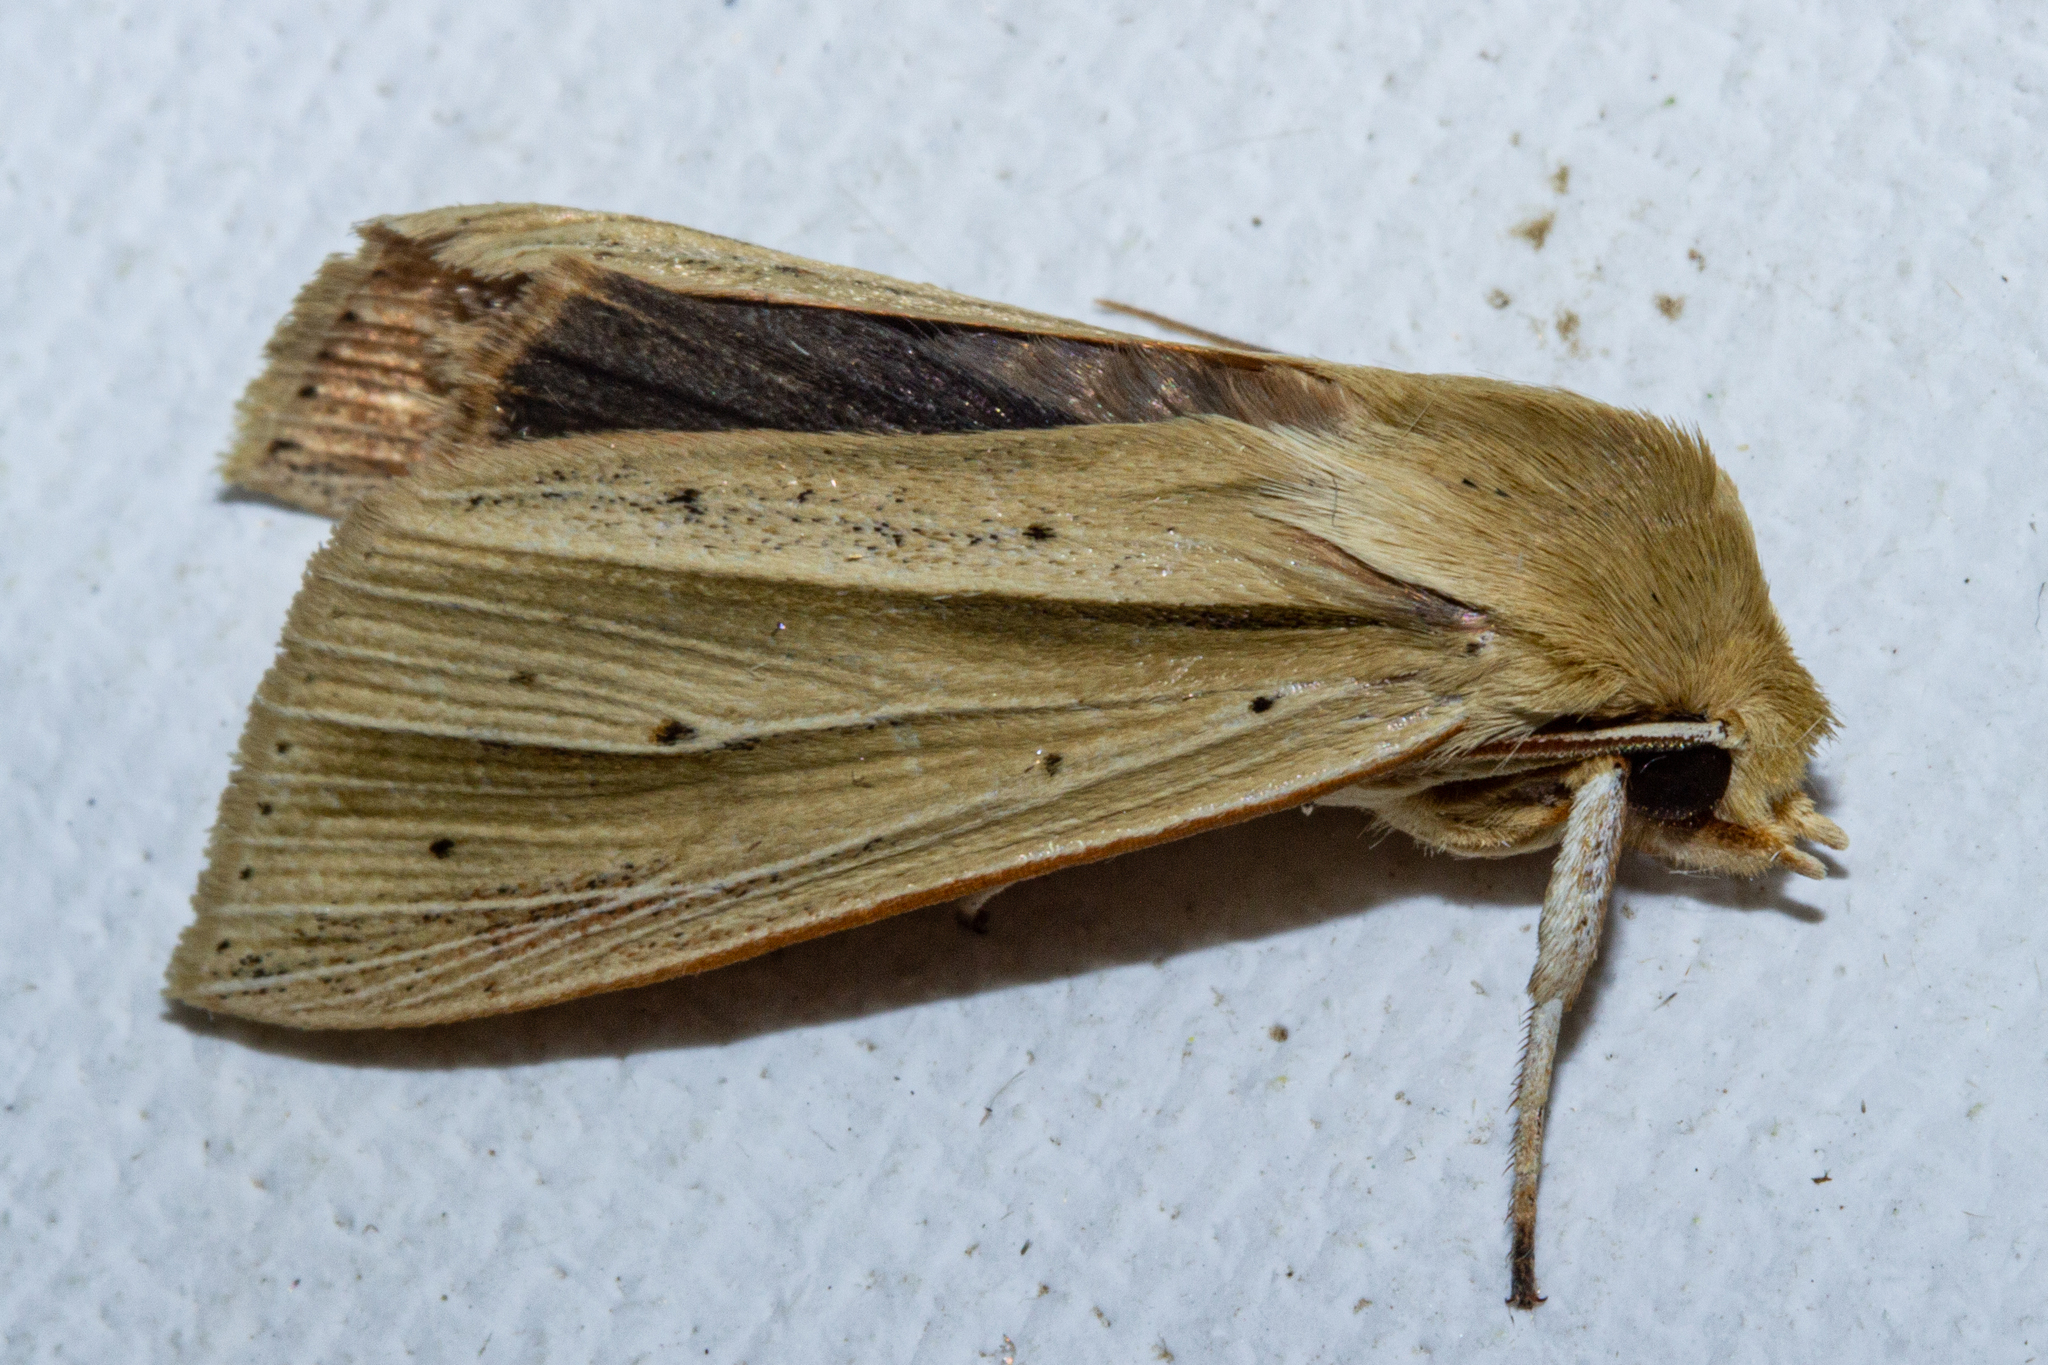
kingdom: Animalia
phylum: Arthropoda
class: Insecta
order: Lepidoptera
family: Noctuidae
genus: Ichneutica
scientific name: Ichneutica sulcana
